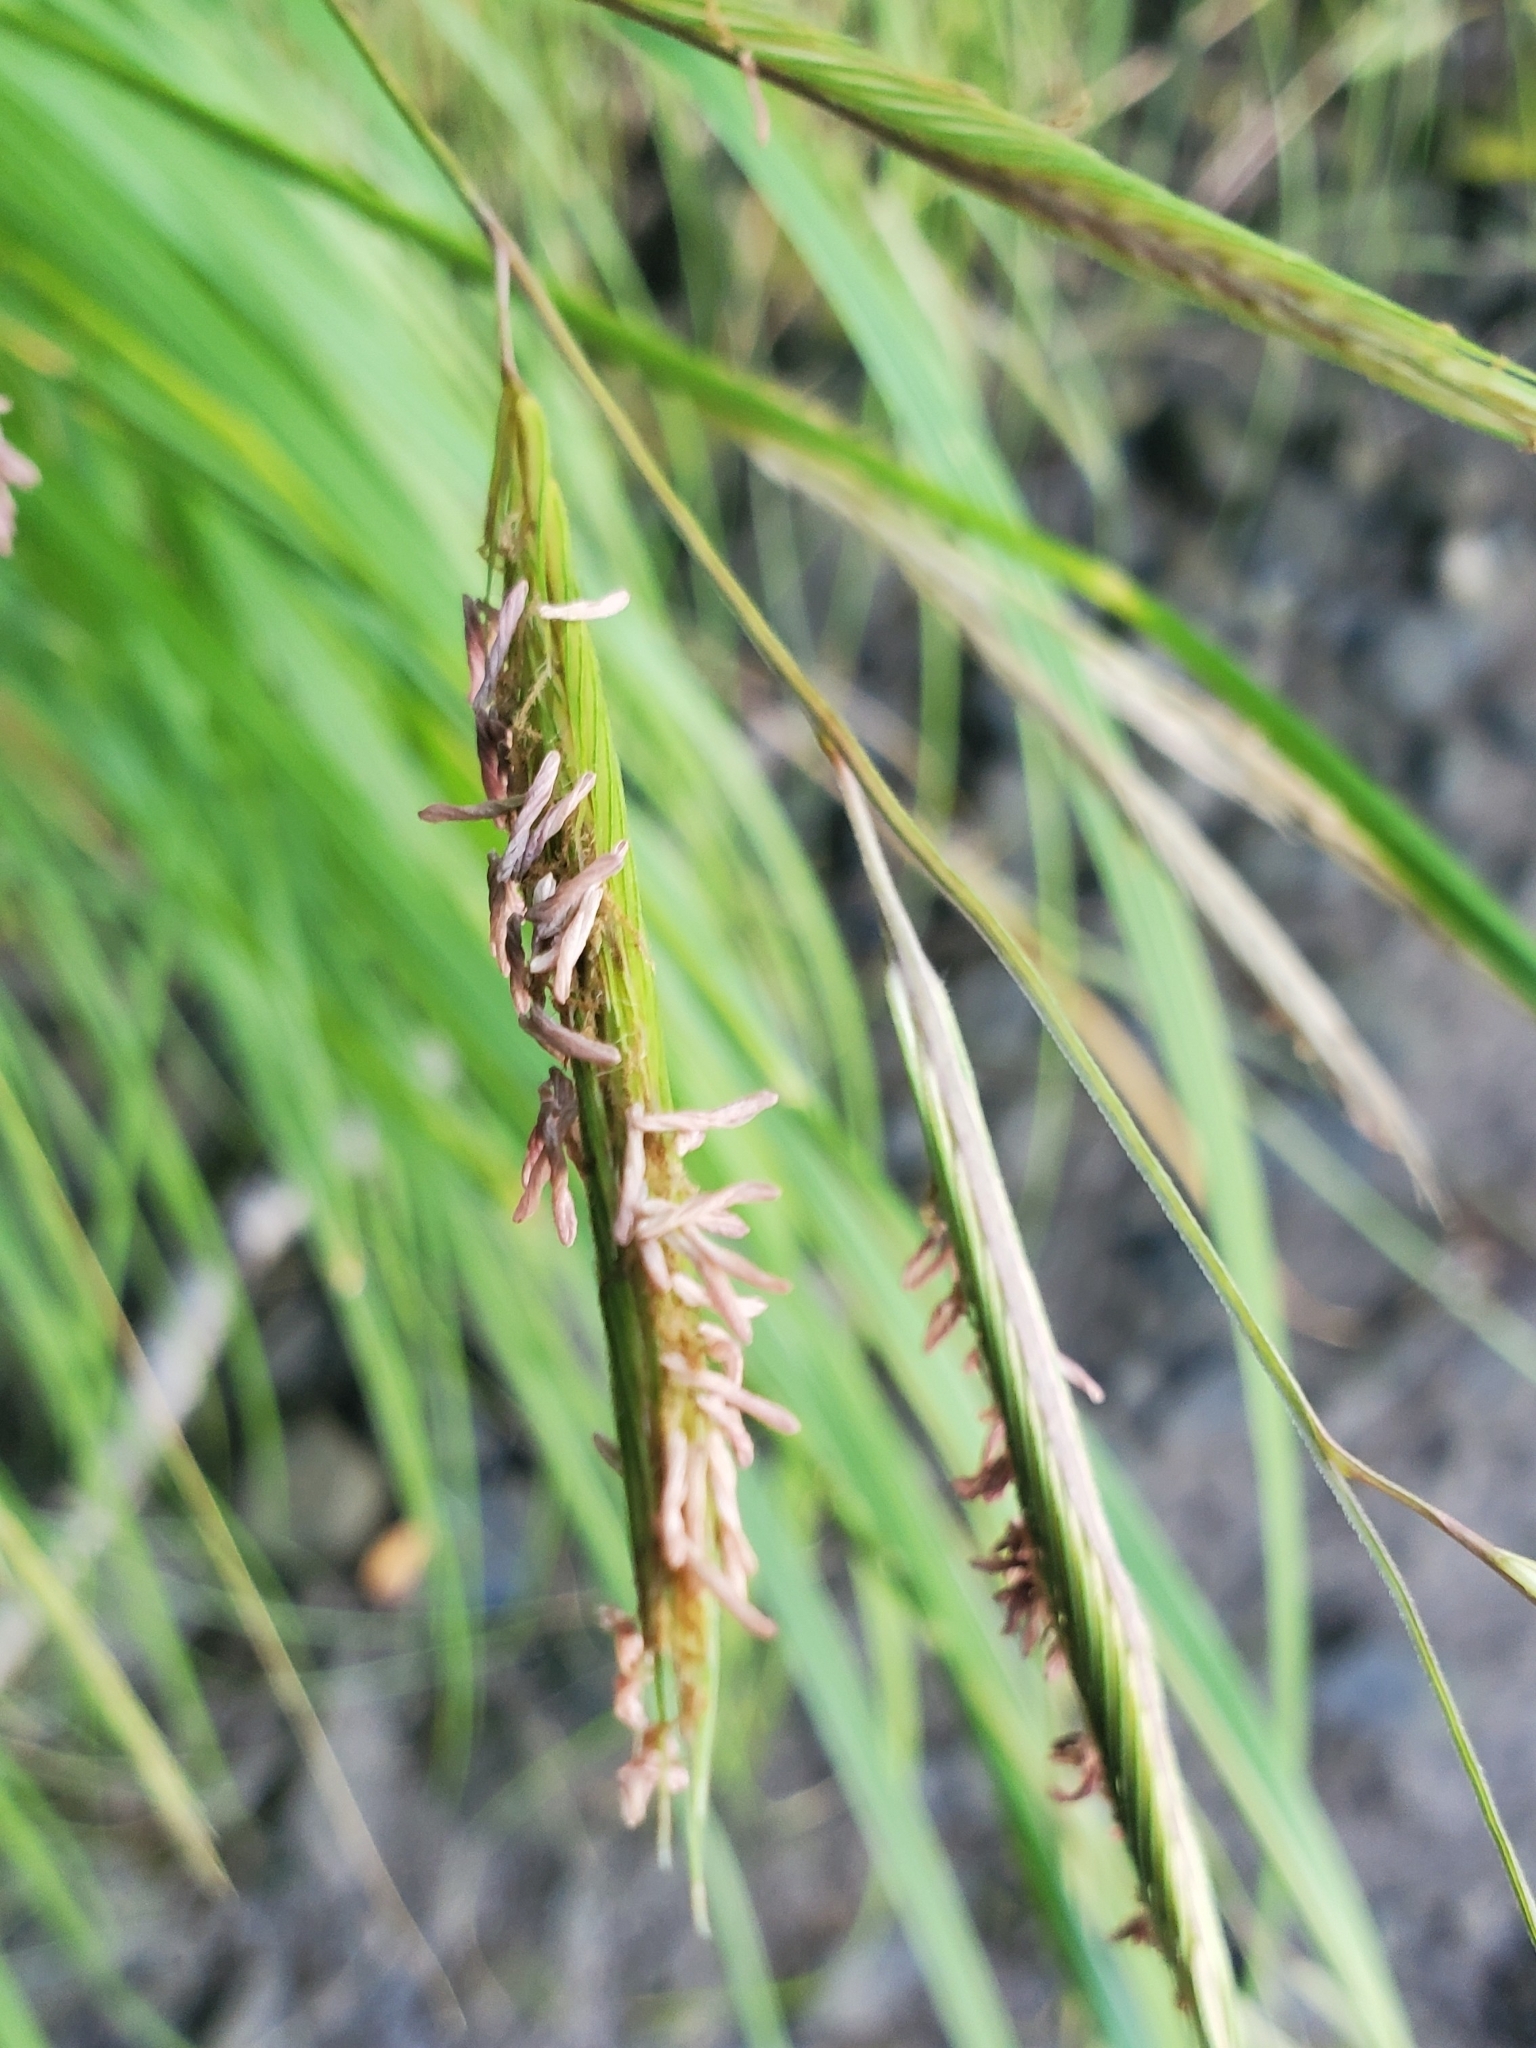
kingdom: Plantae
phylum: Tracheophyta
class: Liliopsida
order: Poales
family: Poaceae
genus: Sporobolus
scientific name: Sporobolus michauxianus
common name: Freshwater cordgrass
